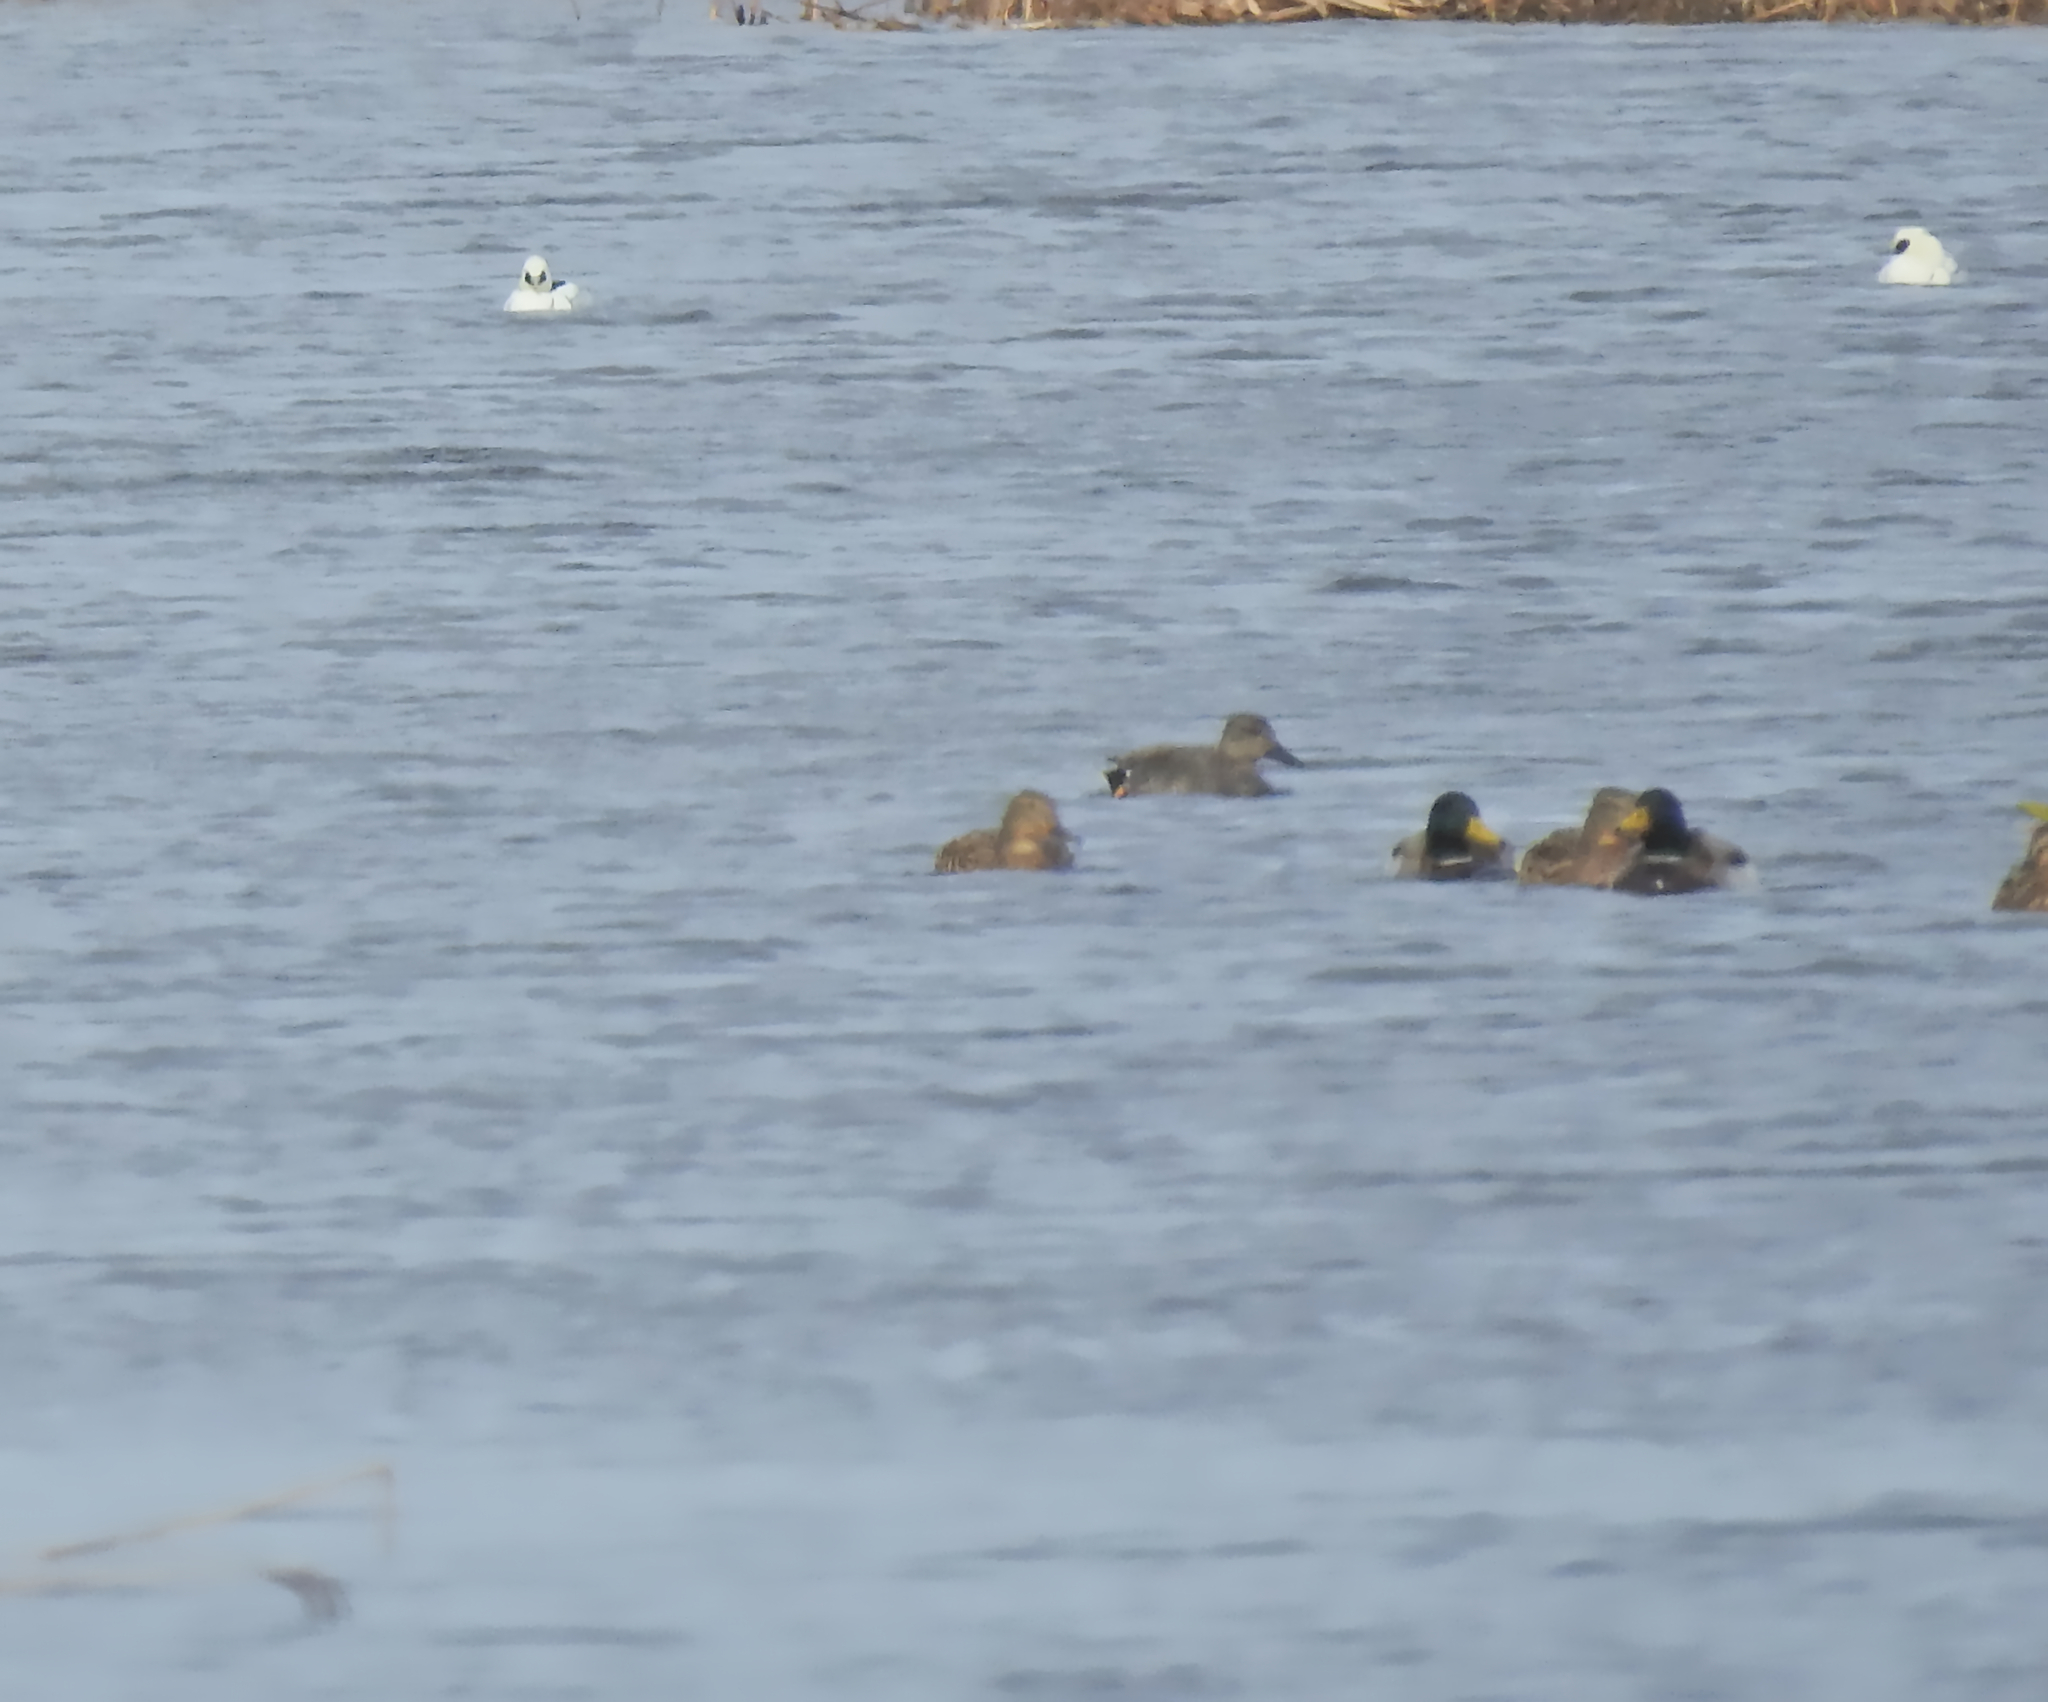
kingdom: Animalia
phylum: Chordata
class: Aves
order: Anseriformes
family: Anatidae
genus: Mareca
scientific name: Mareca strepera
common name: Gadwall
